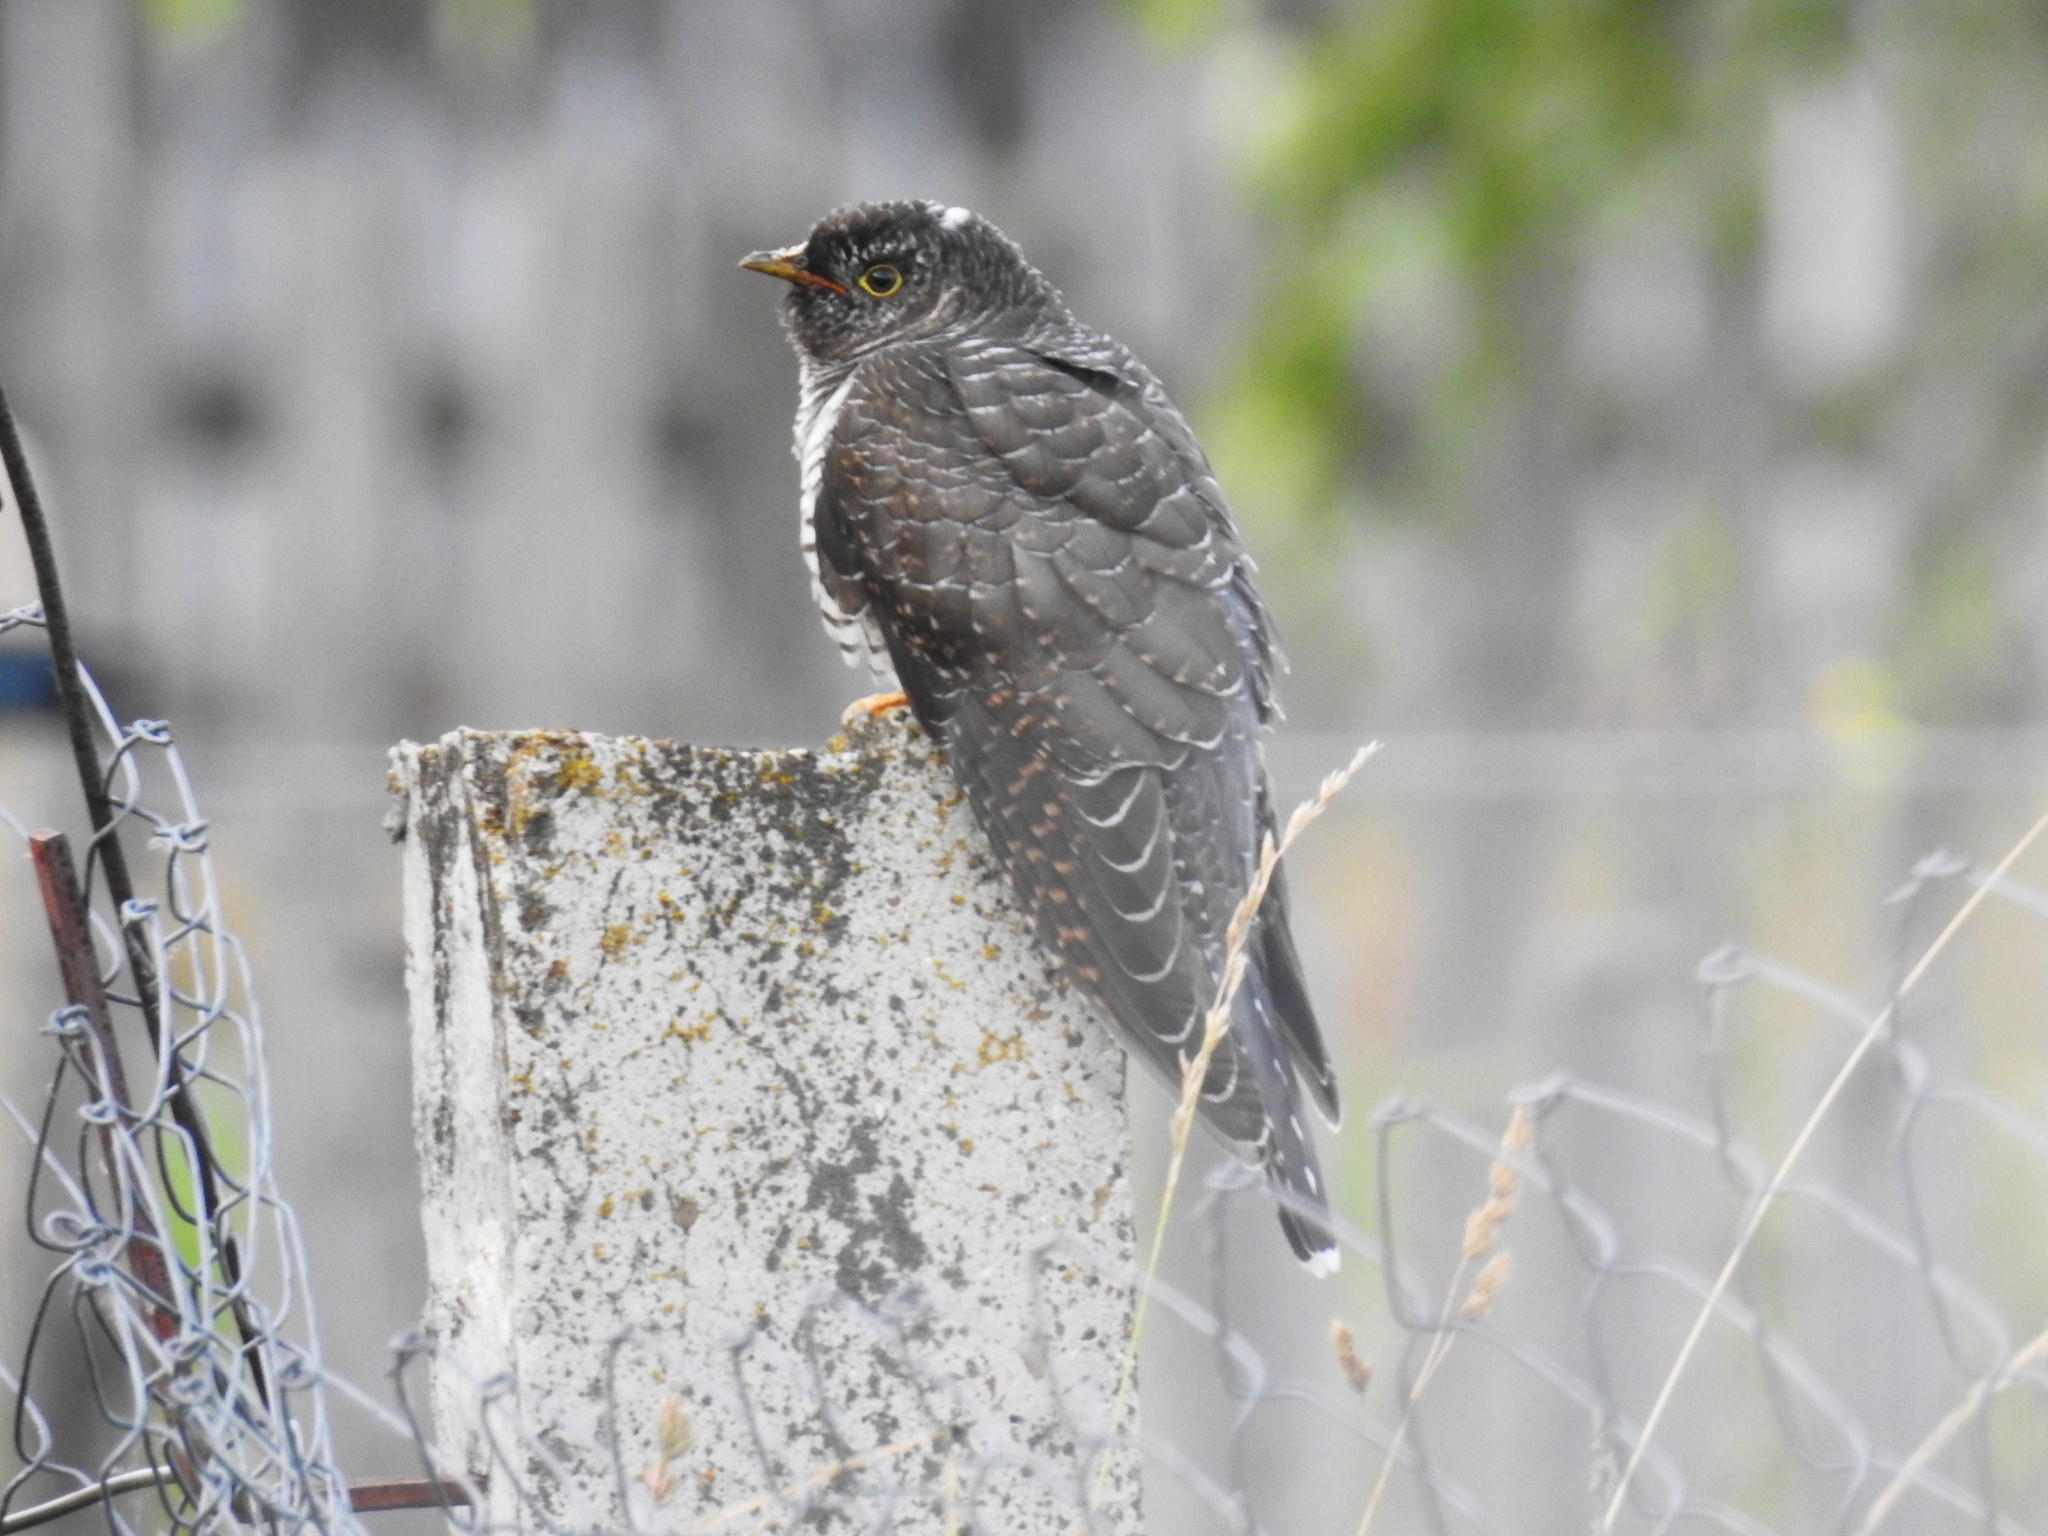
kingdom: Animalia
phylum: Chordata
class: Aves
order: Cuculiformes
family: Cuculidae
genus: Cuculus
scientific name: Cuculus canorus
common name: Common cuckoo
